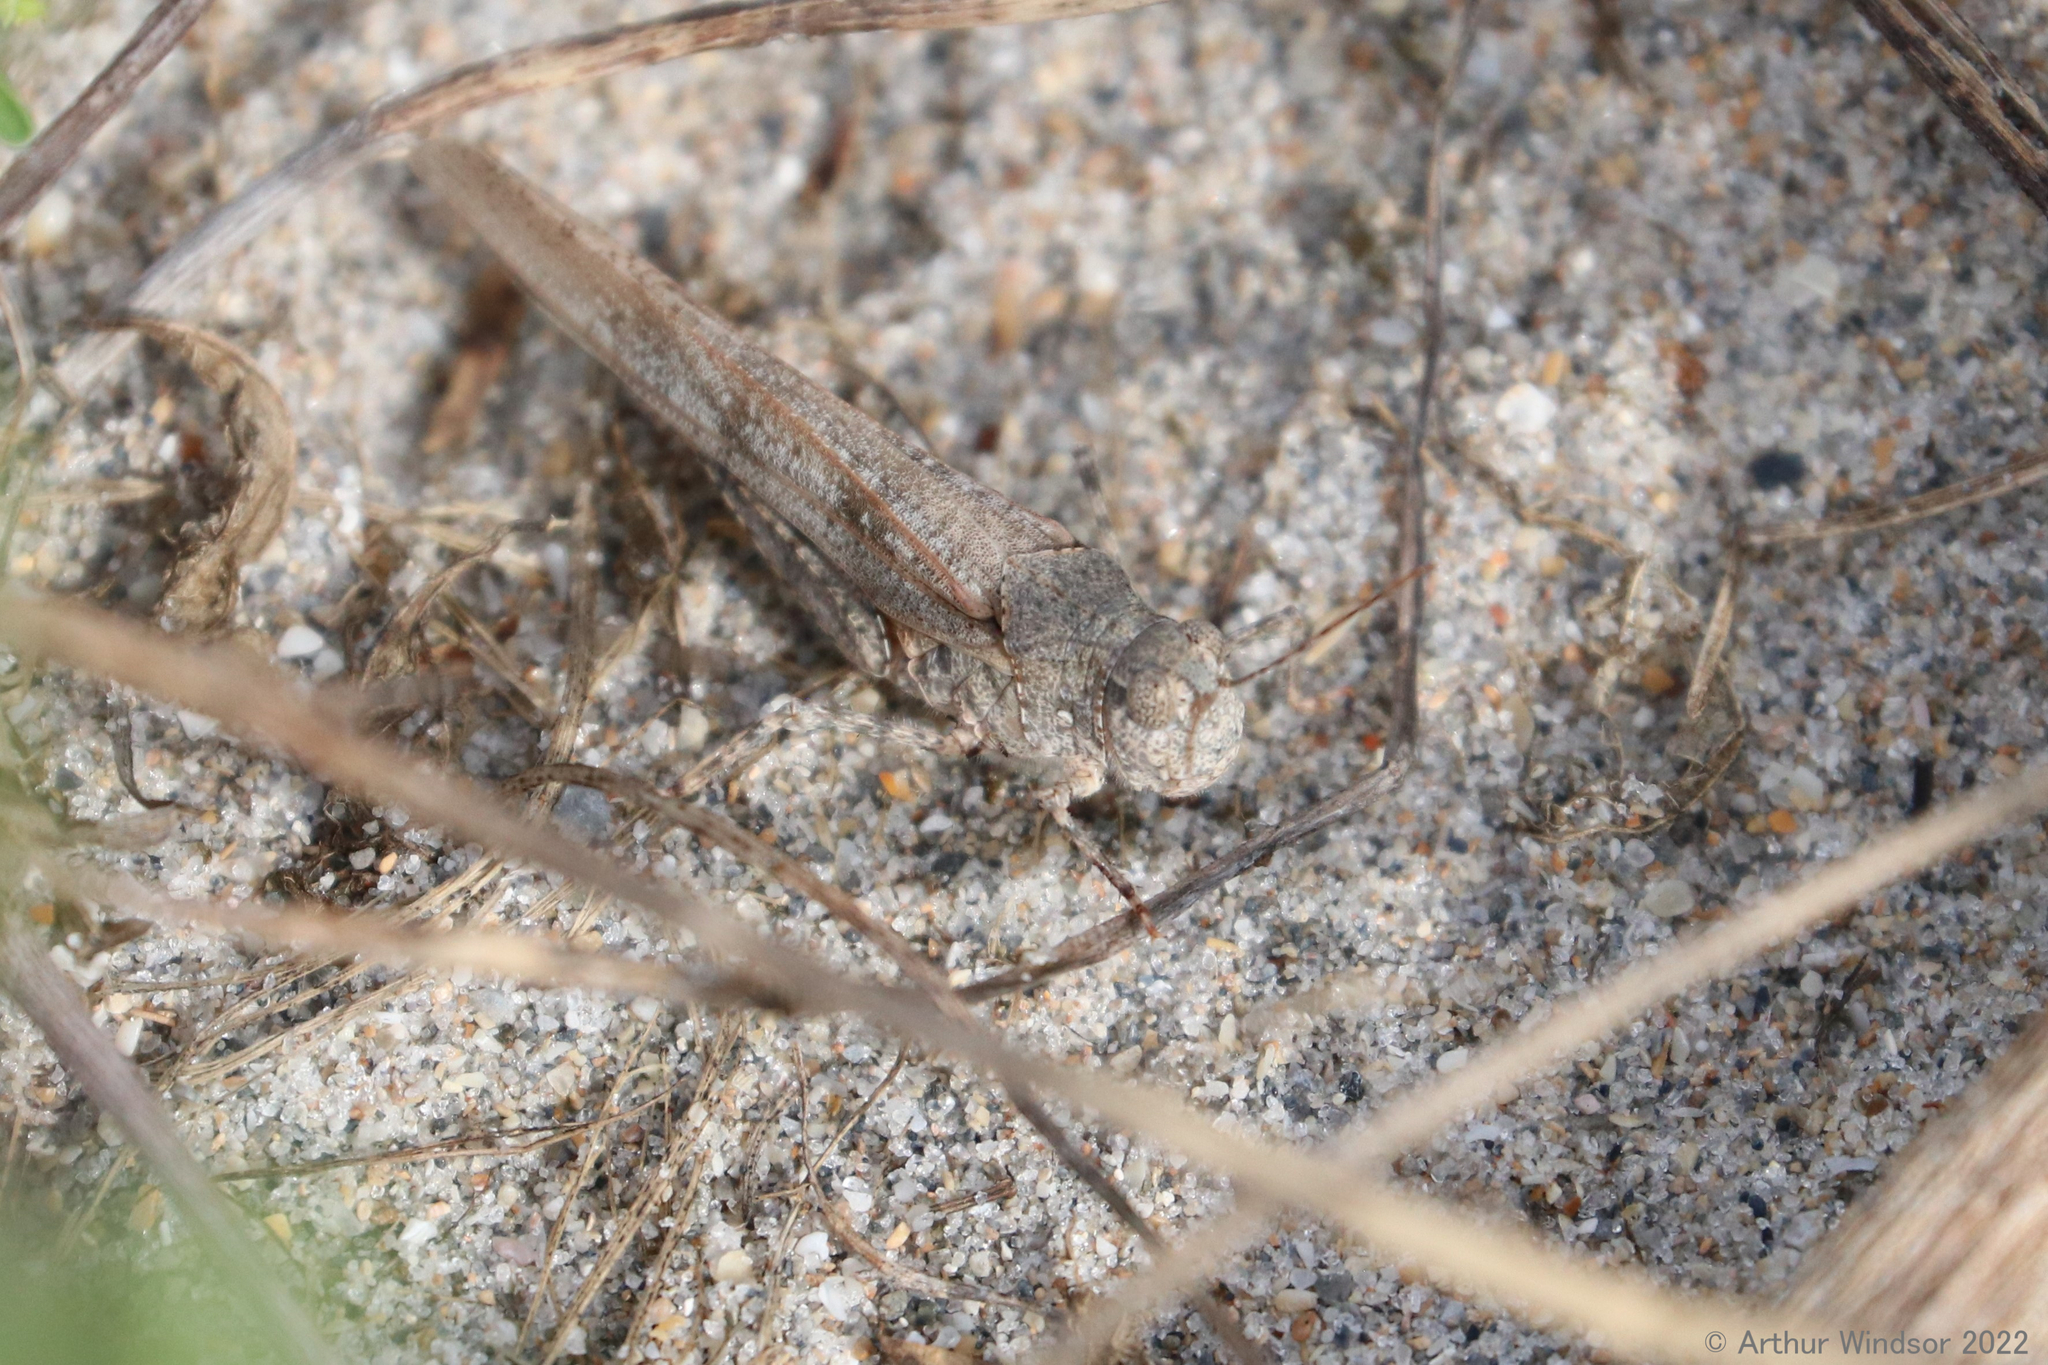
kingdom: Animalia
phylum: Arthropoda
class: Insecta
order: Orthoptera
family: Acrididae
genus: Trimerotropis
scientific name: Trimerotropis maritima
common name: Seaside locust
